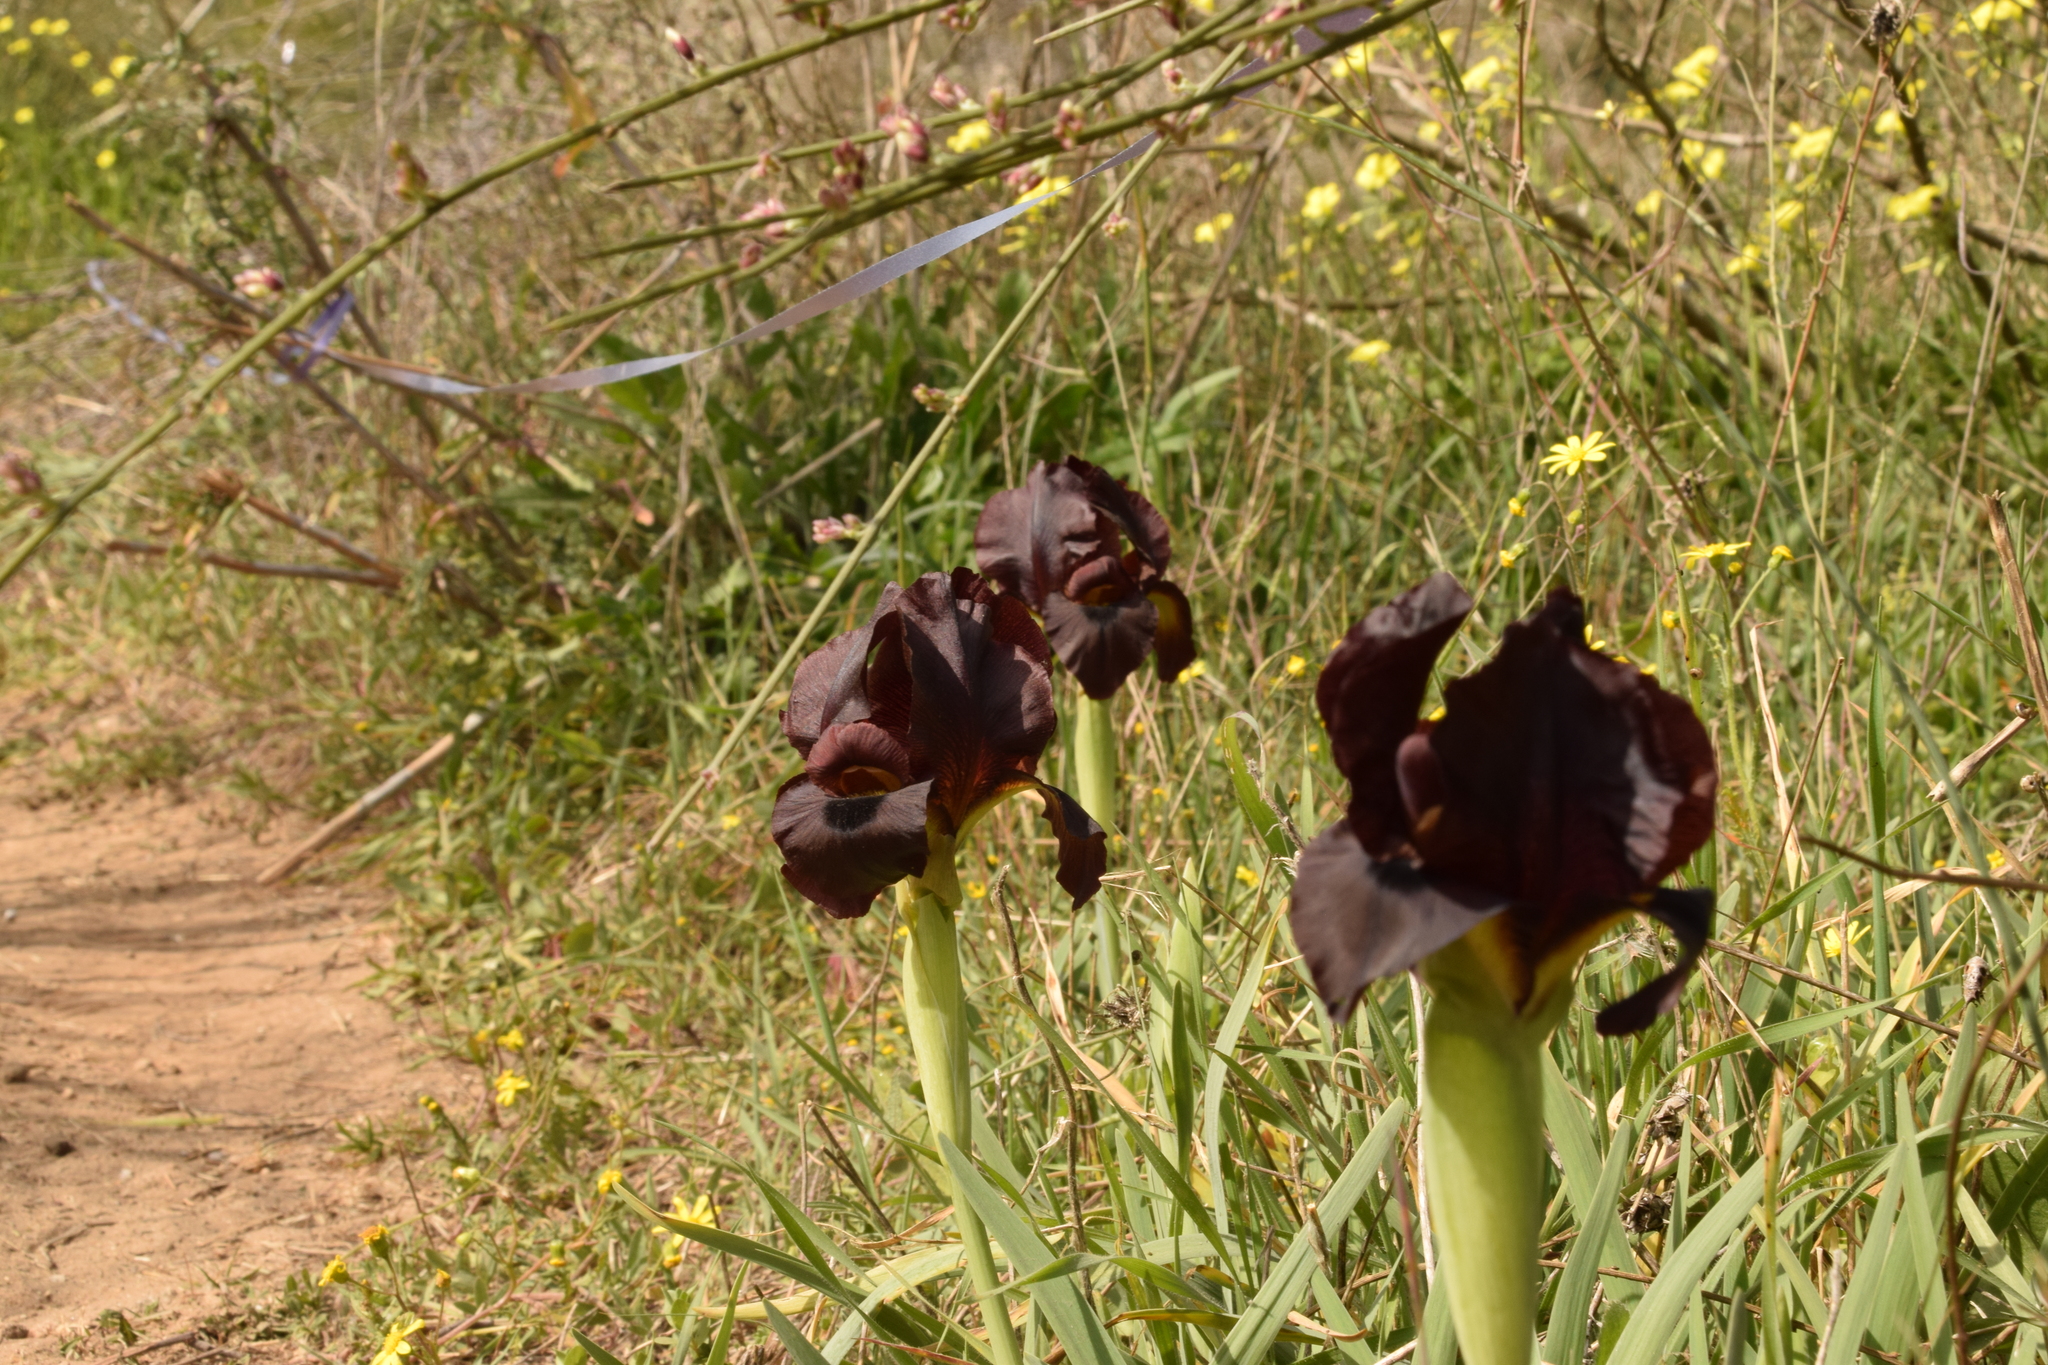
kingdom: Plantae
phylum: Tracheophyta
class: Liliopsida
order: Asparagales
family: Iridaceae
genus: Iris
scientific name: Iris atropurpurea
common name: Coastal iris
